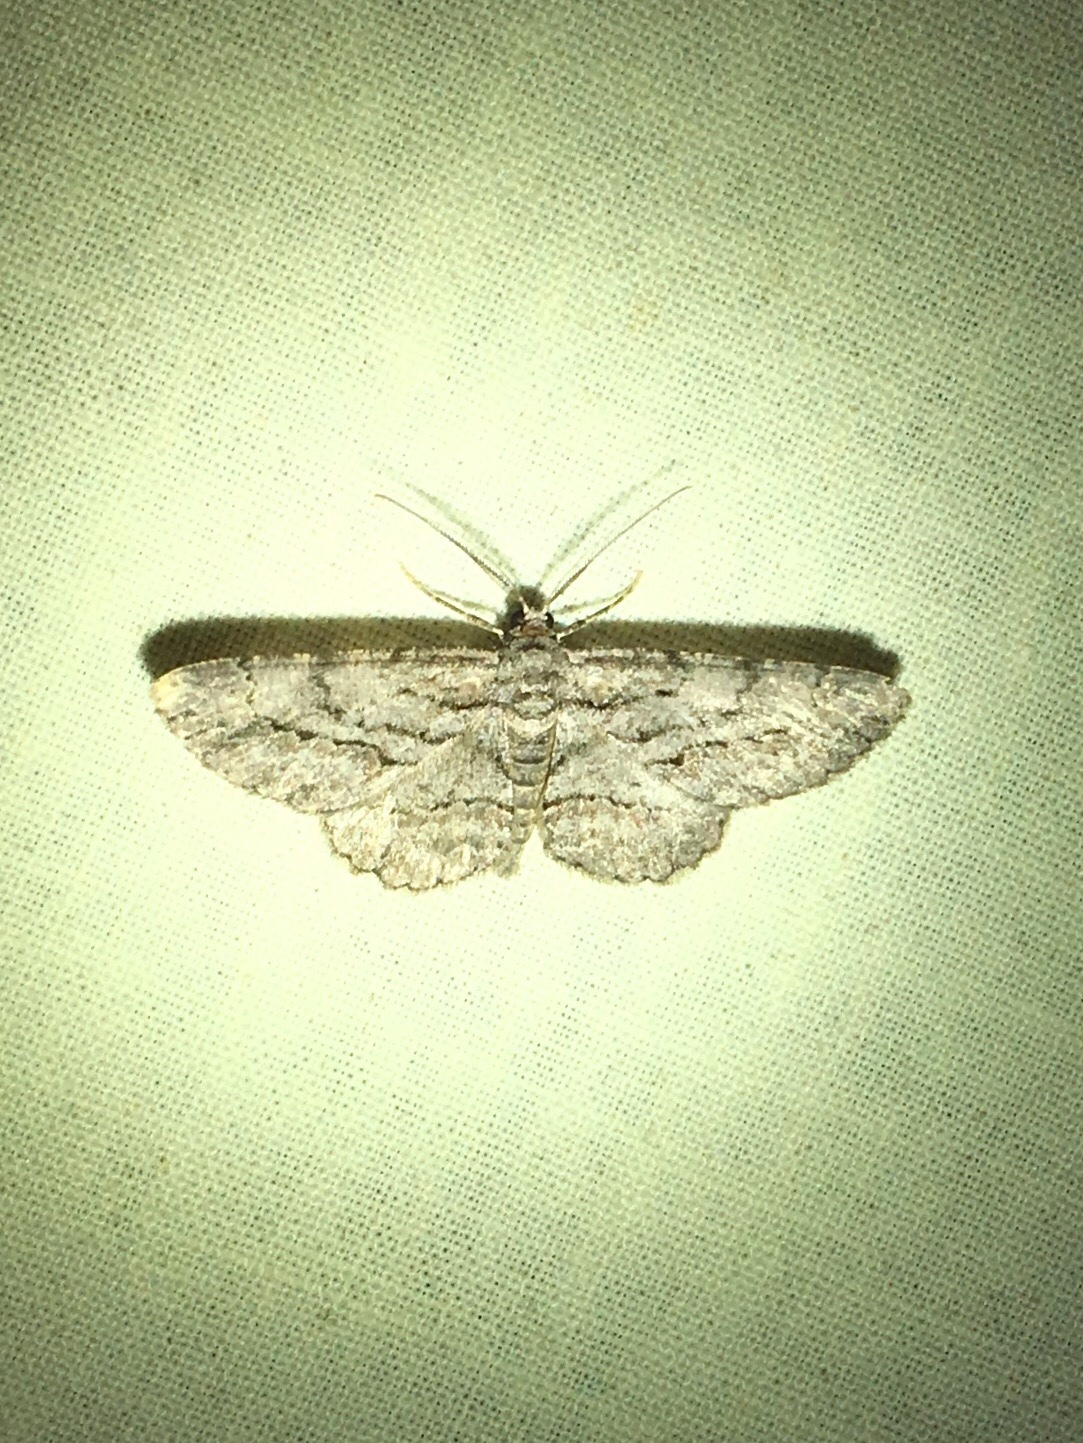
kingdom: Animalia
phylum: Arthropoda
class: Insecta
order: Lepidoptera
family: Geometridae
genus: Anavitrinella
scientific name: Anavitrinella pampinaria
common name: Common gray
